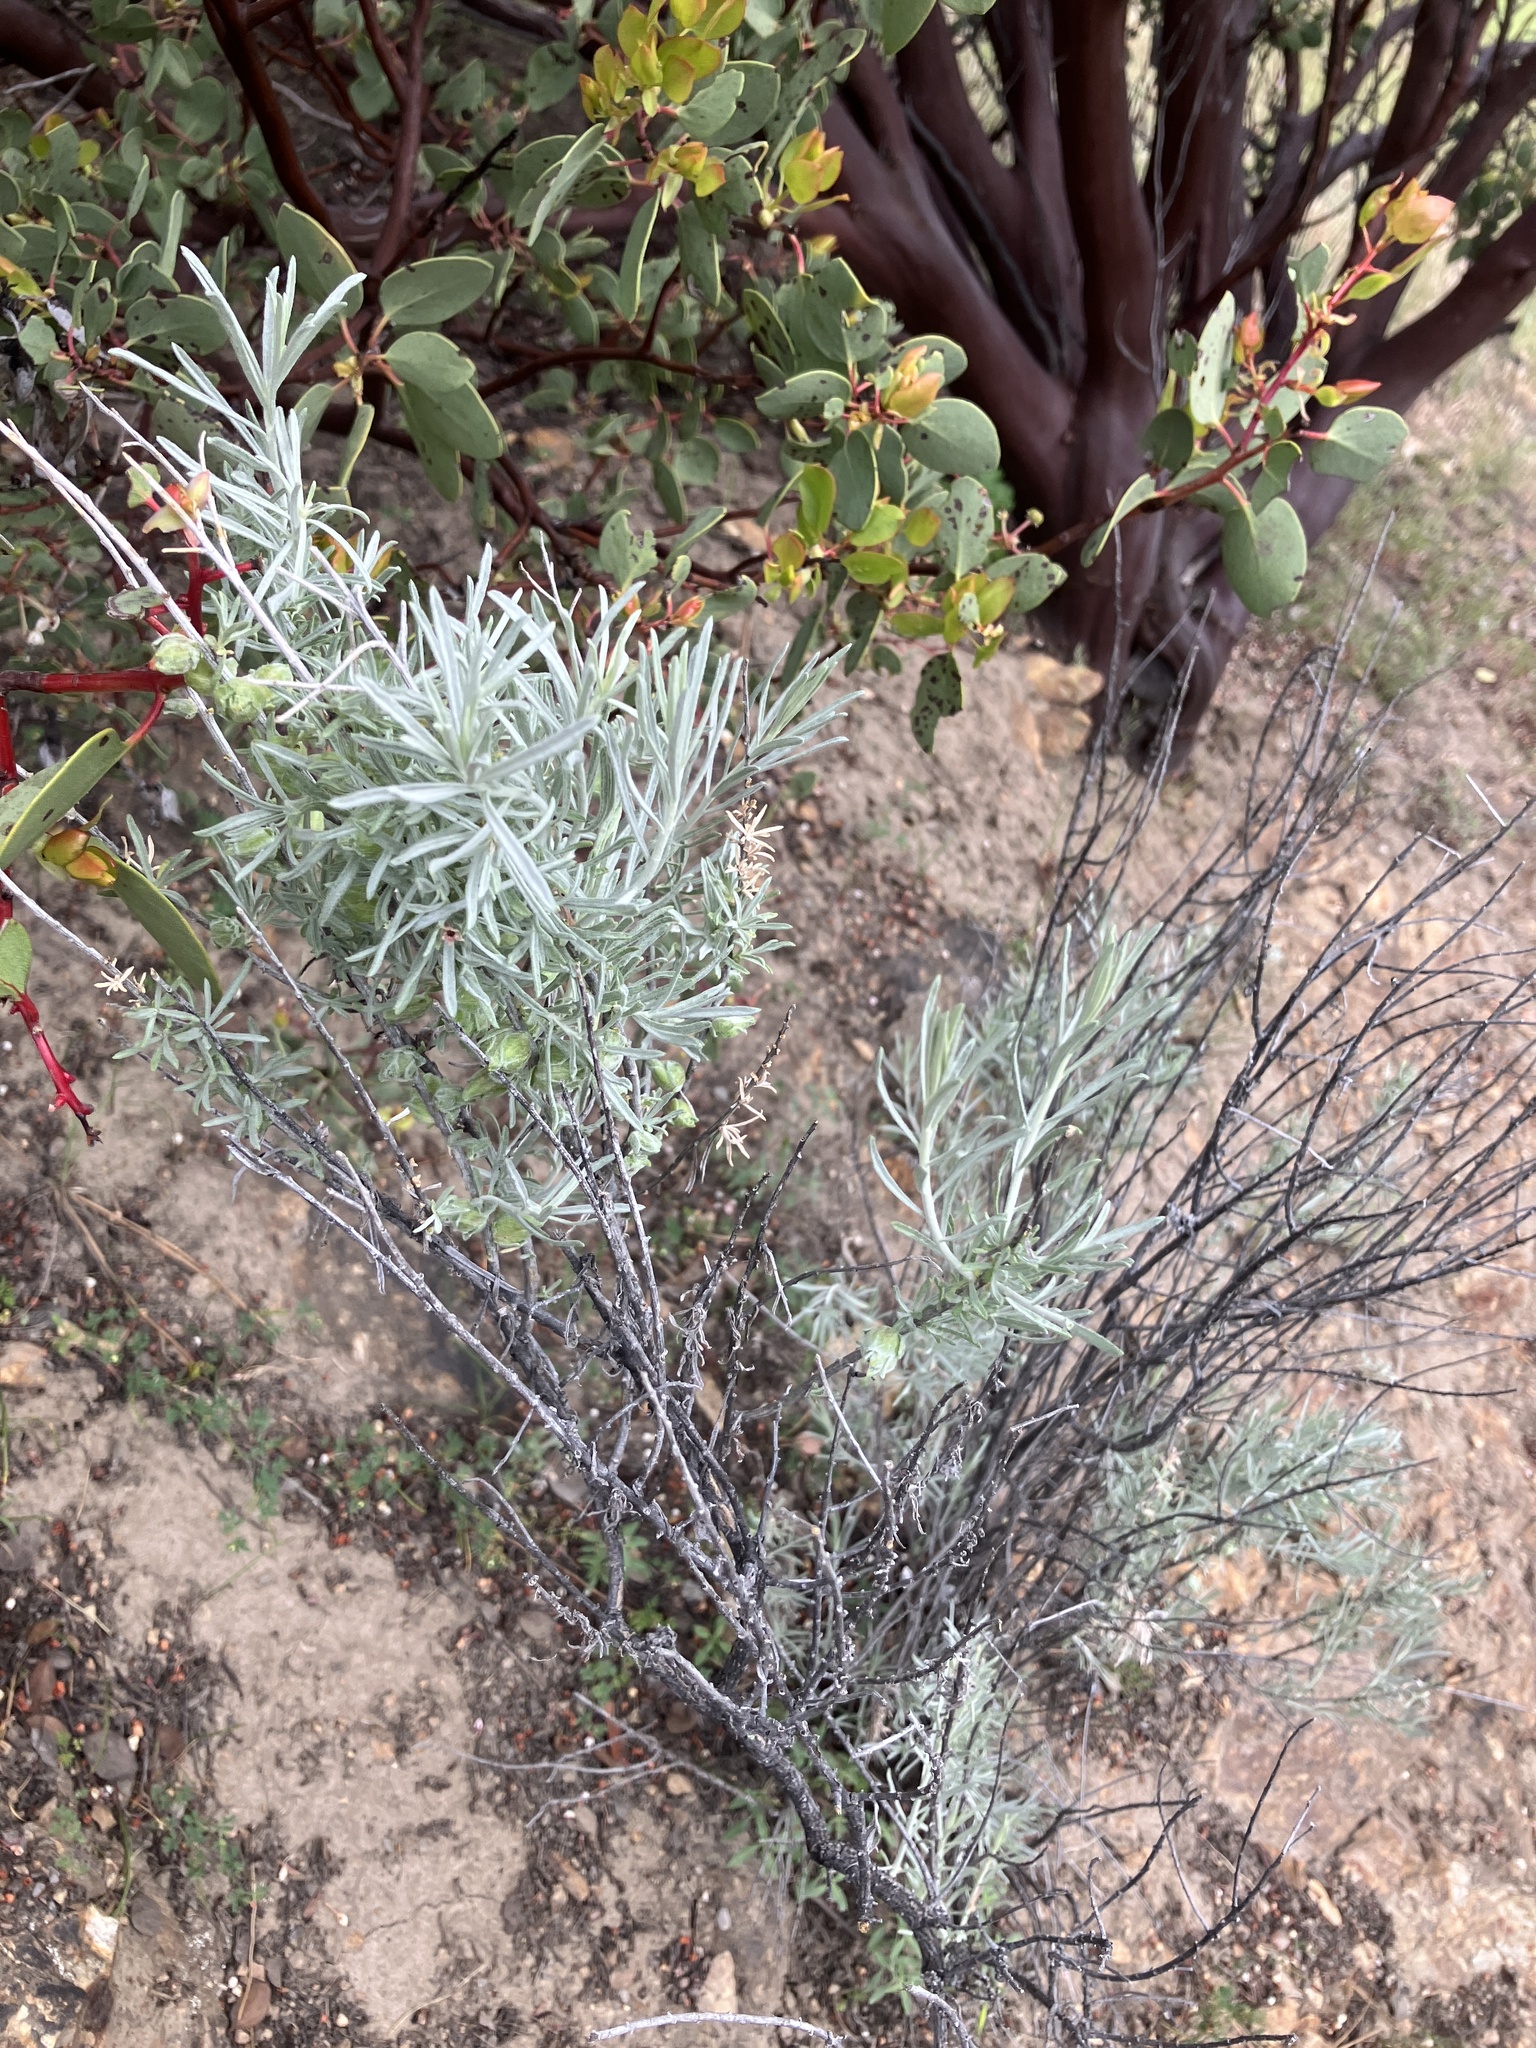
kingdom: Plantae
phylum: Tracheophyta
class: Magnoliopsida
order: Asterales
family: Asteraceae
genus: Artemisia
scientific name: Artemisia cana
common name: Silver sagebrush
